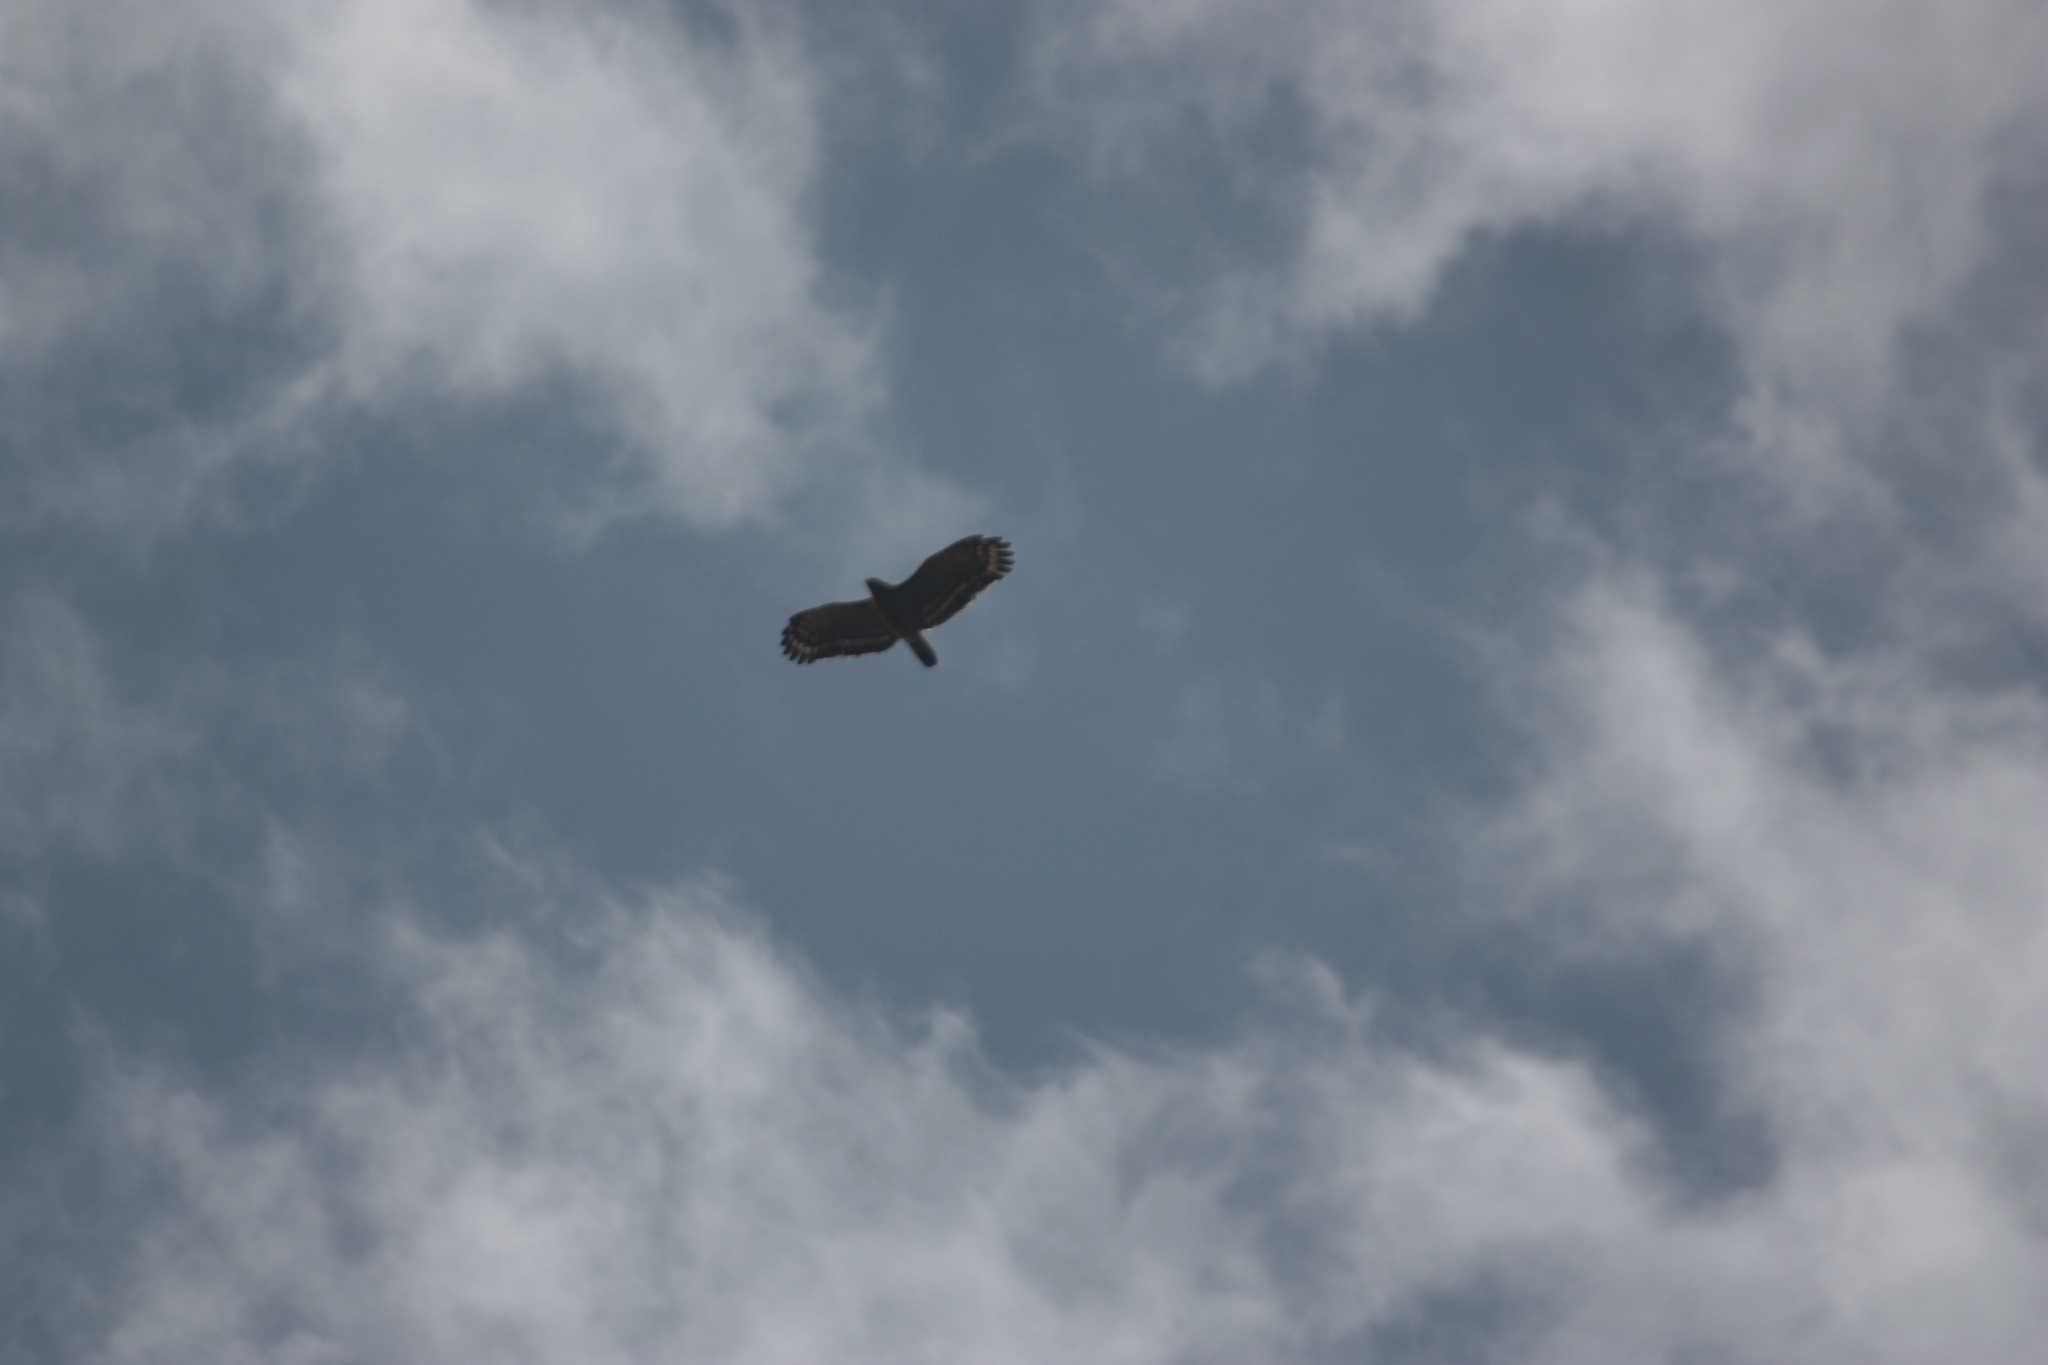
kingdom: Animalia
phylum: Chordata
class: Aves
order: Accipitriformes
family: Accipitridae
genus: Spilornis
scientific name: Spilornis cheela
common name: Crested serpent eagle
